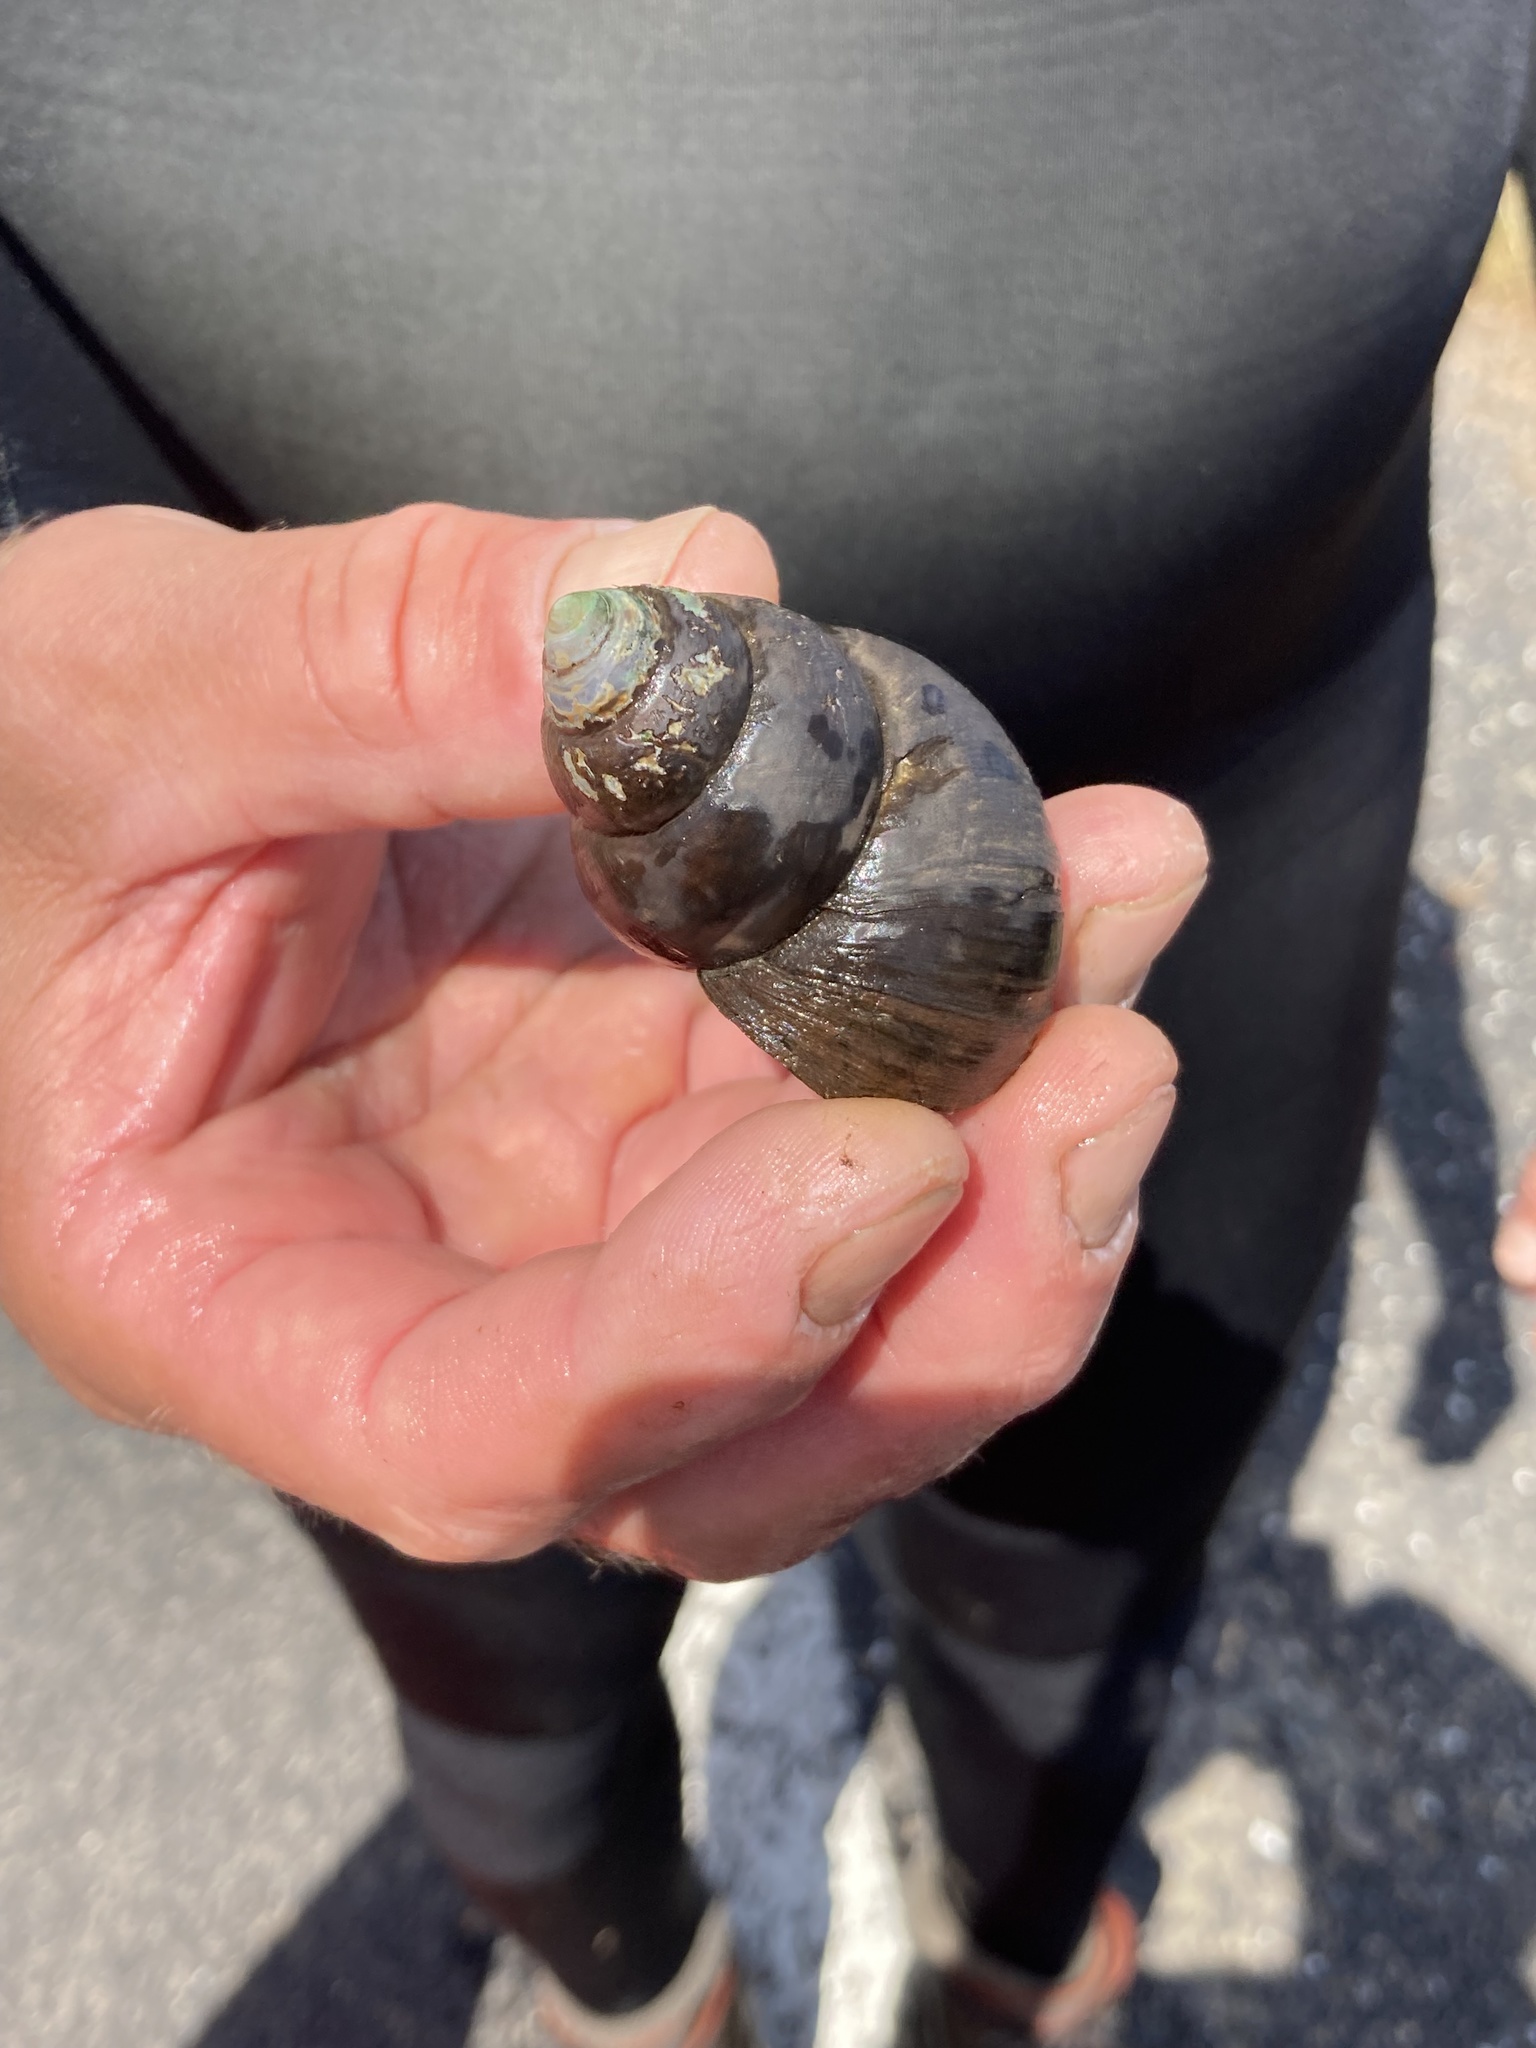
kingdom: Animalia
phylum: Mollusca
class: Gastropoda
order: Architaenioglossa
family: Viviparidae
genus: Cipangopaludina
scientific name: Cipangopaludina chinensis
